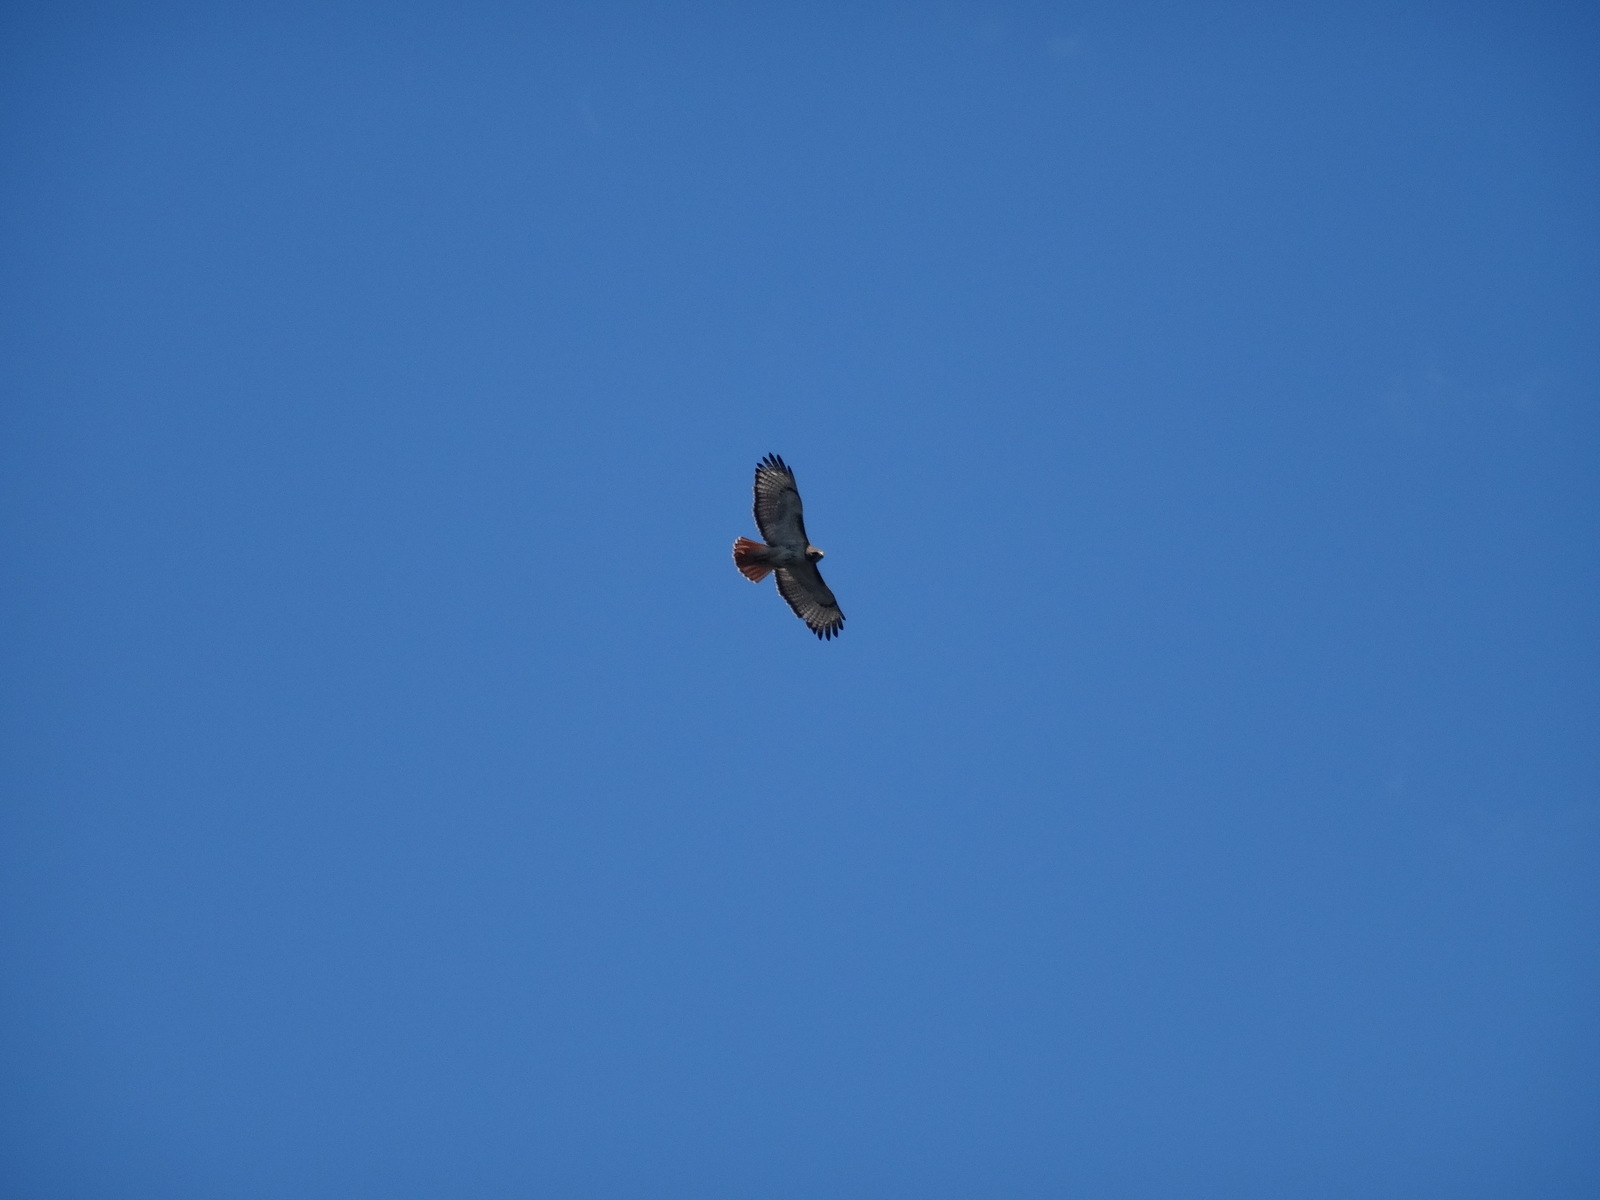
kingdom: Animalia
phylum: Chordata
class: Aves
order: Accipitriformes
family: Accipitridae
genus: Buteo
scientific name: Buteo jamaicensis
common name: Red-tailed hawk
